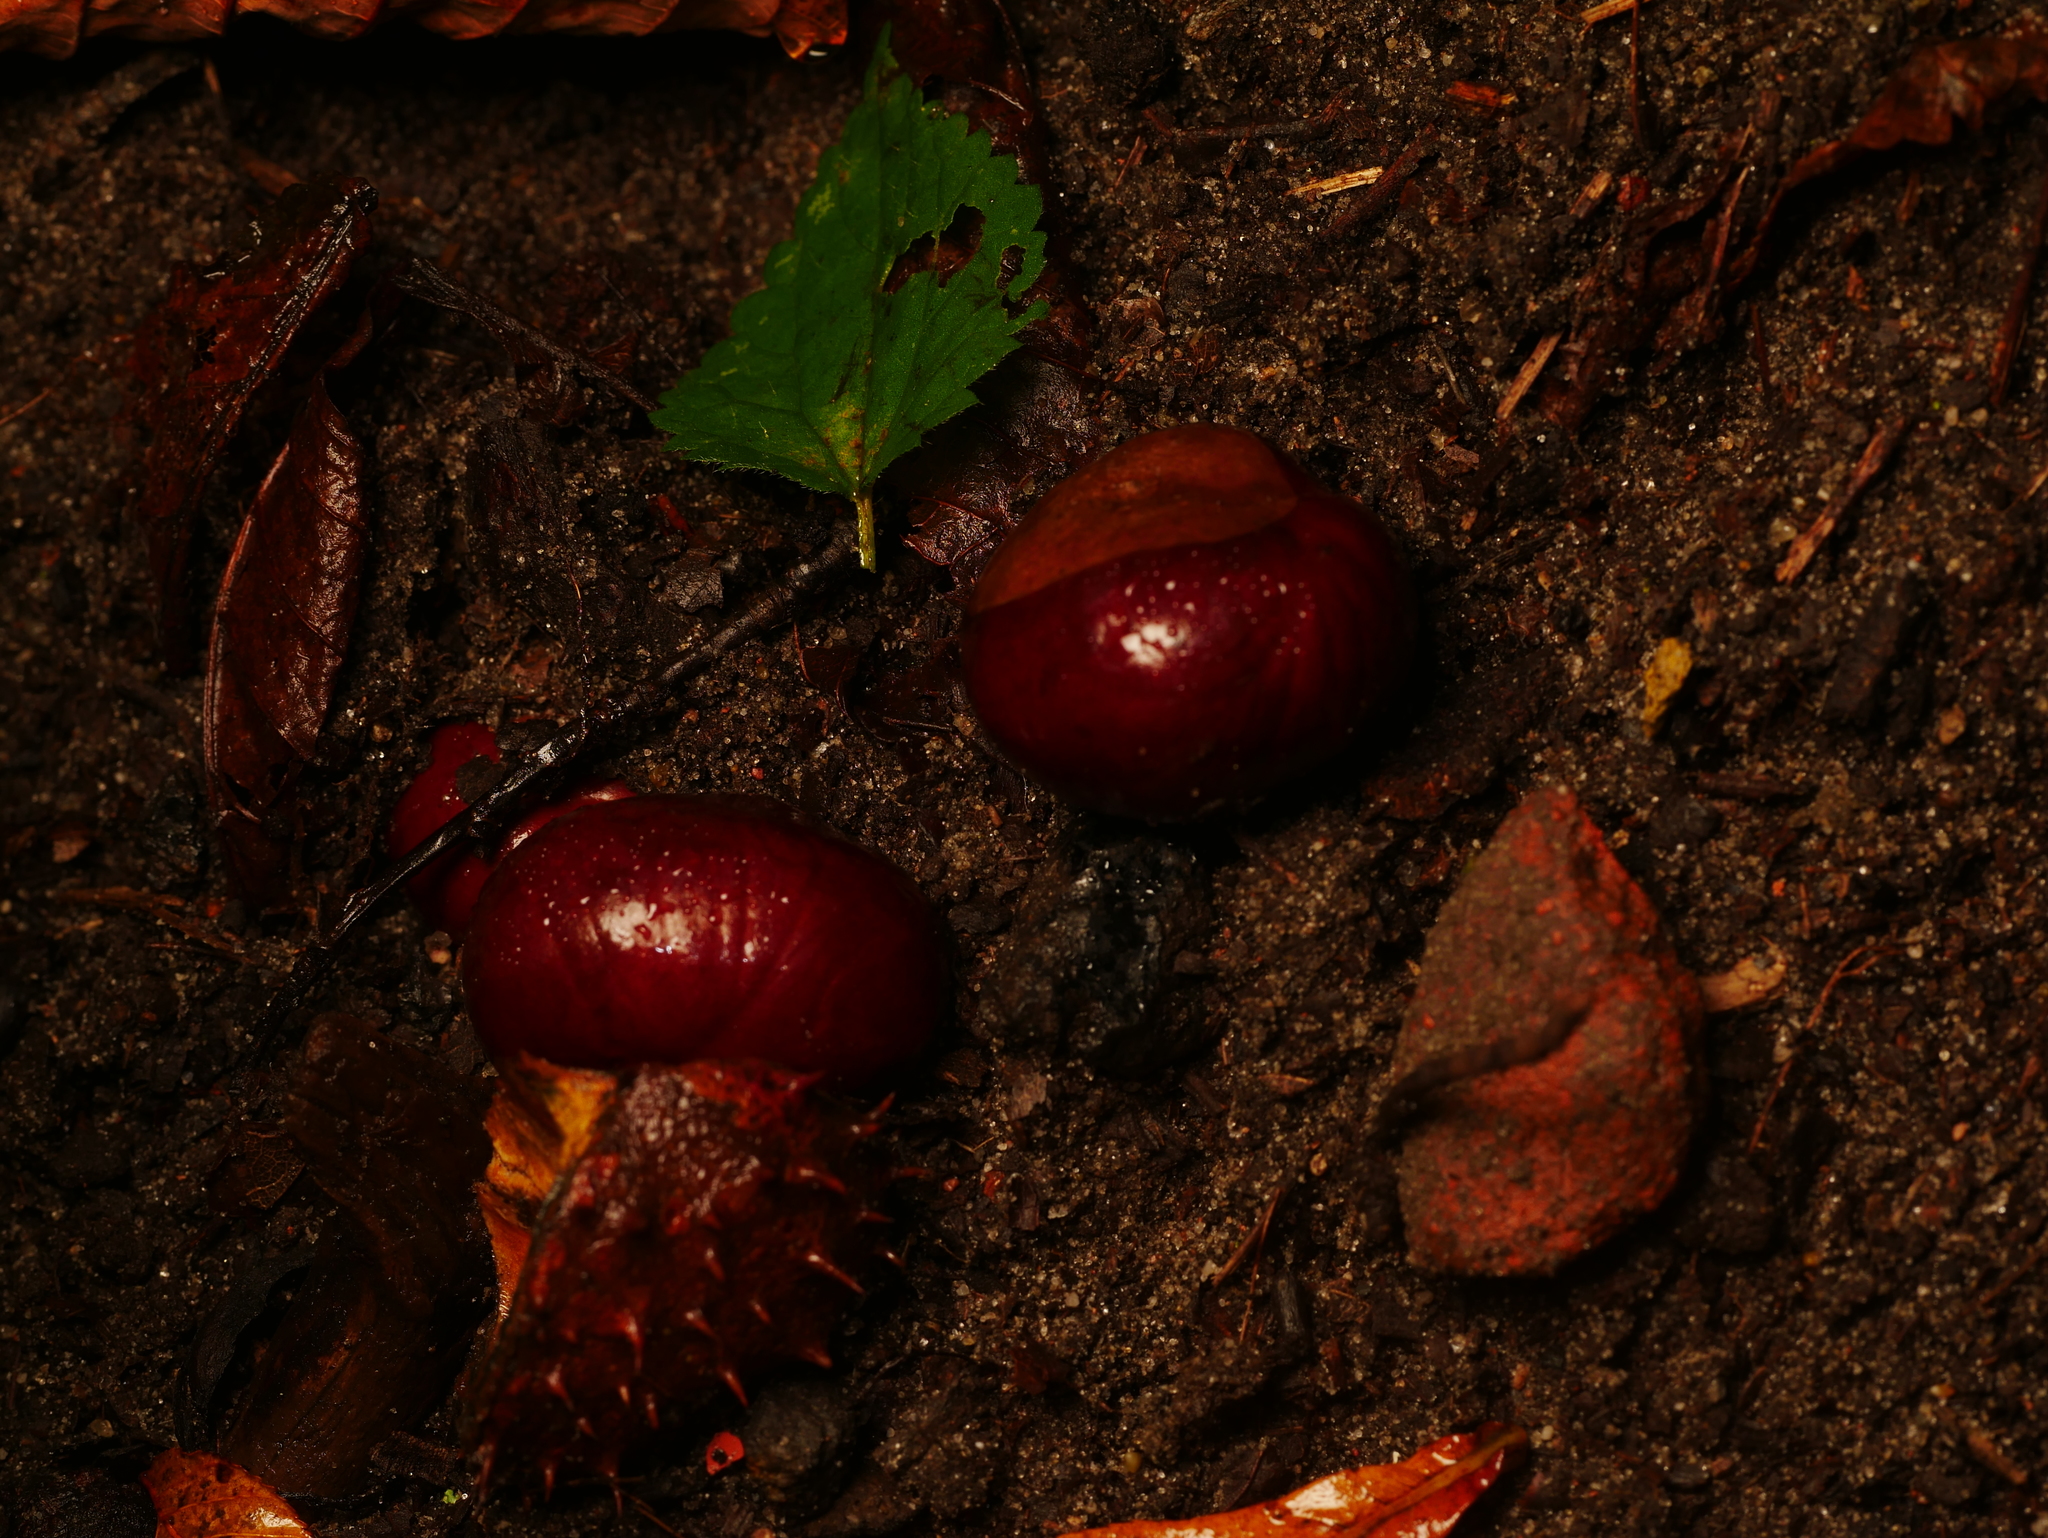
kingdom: Plantae
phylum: Tracheophyta
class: Magnoliopsida
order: Sapindales
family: Sapindaceae
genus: Aesculus
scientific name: Aesculus hippocastanum
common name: Horse-chestnut
